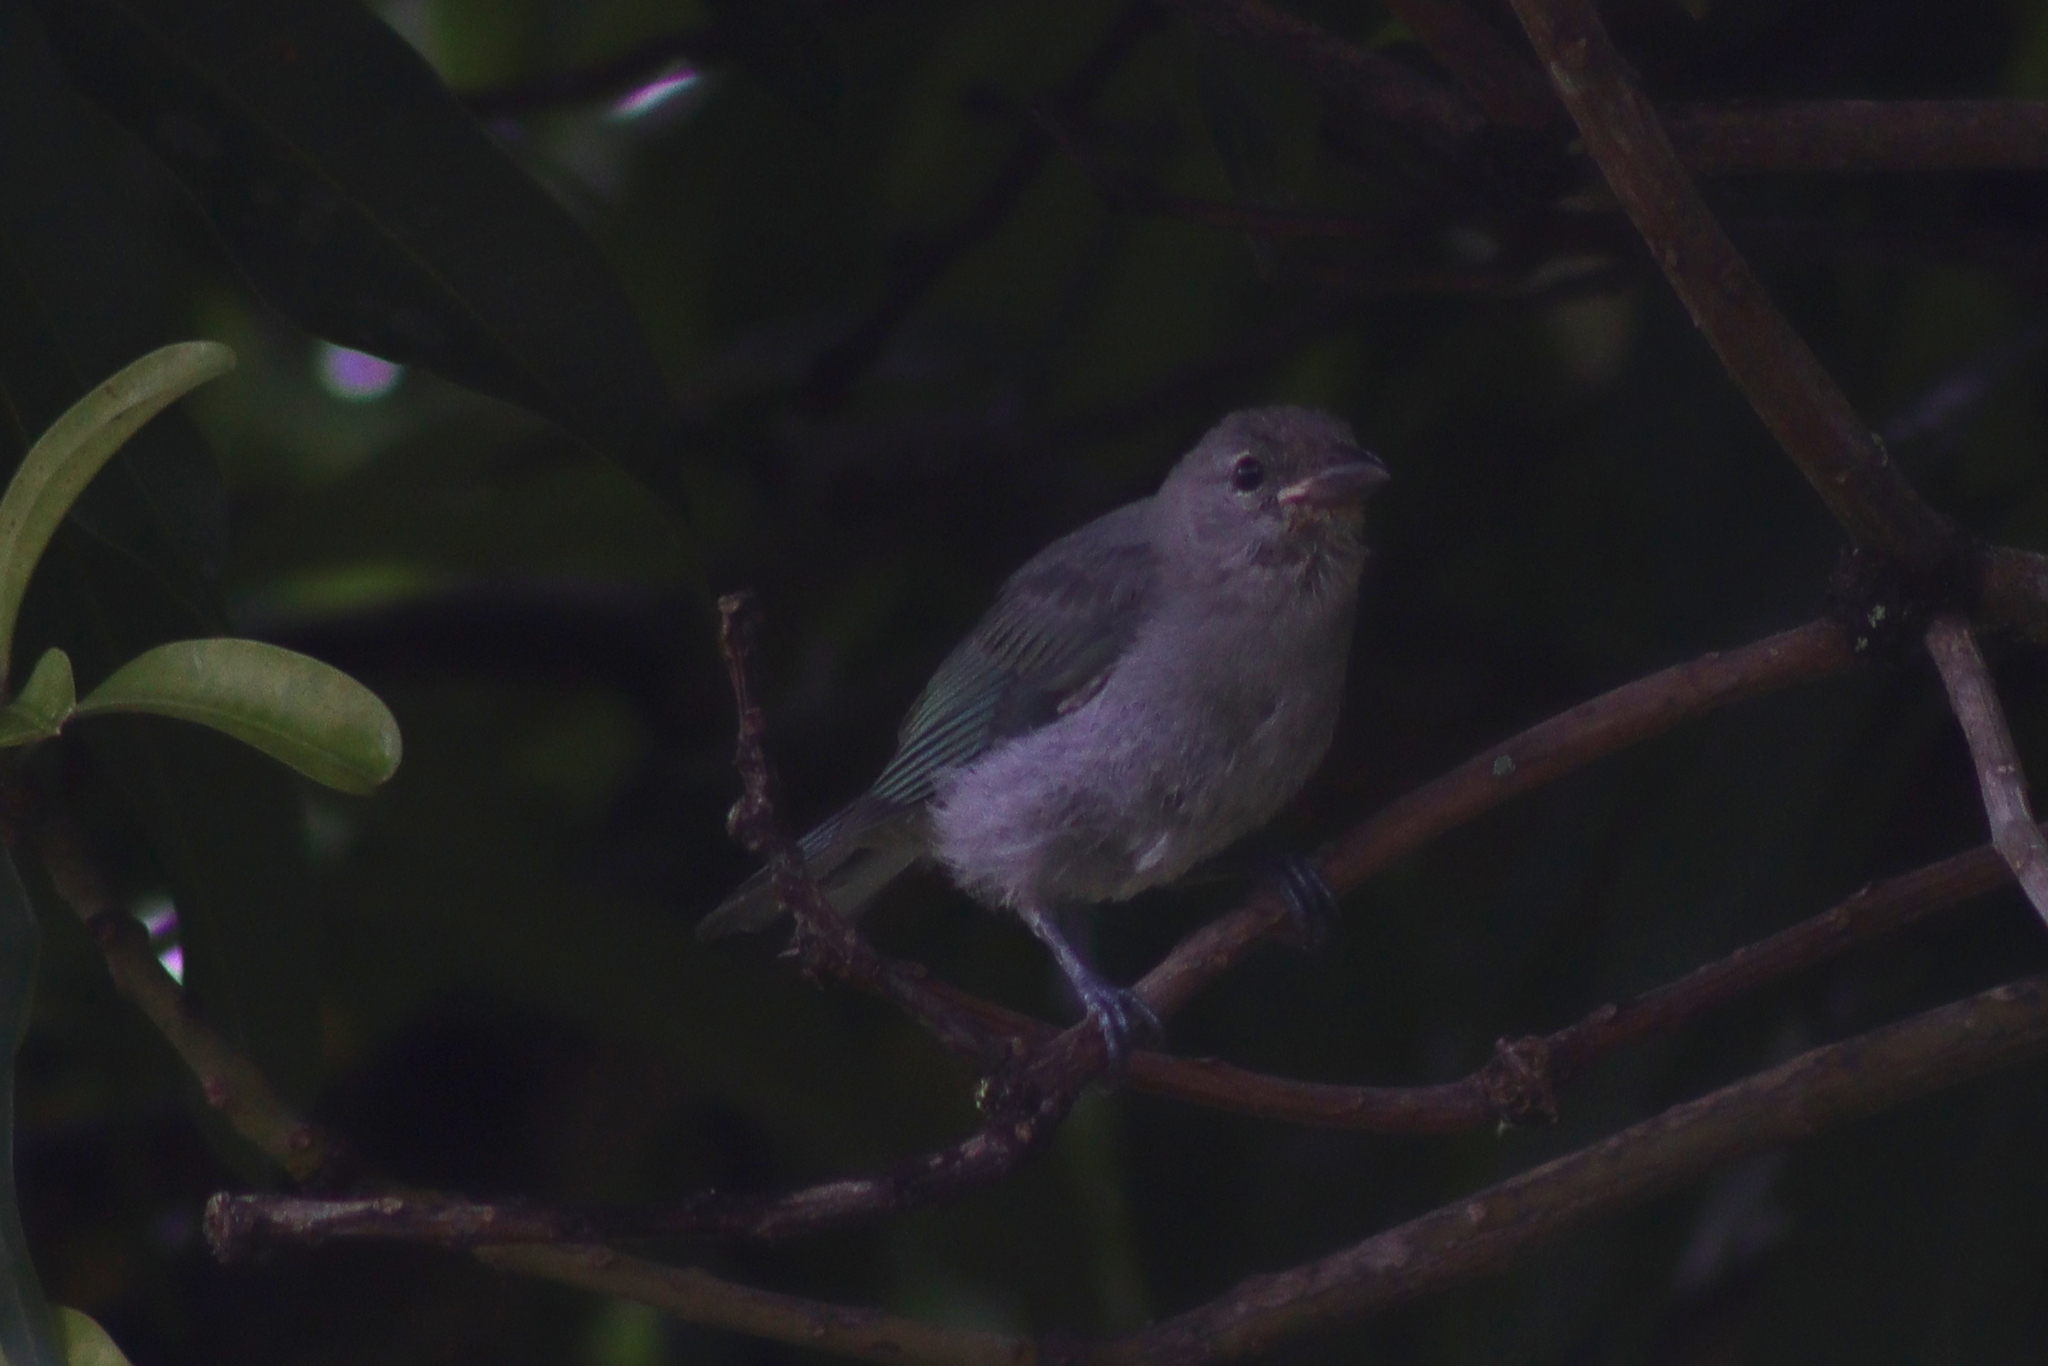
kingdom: Animalia
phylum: Chordata
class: Aves
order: Passeriformes
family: Thraupidae
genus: Thraupis
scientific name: Thraupis sayaca
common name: Sayaca tanager
